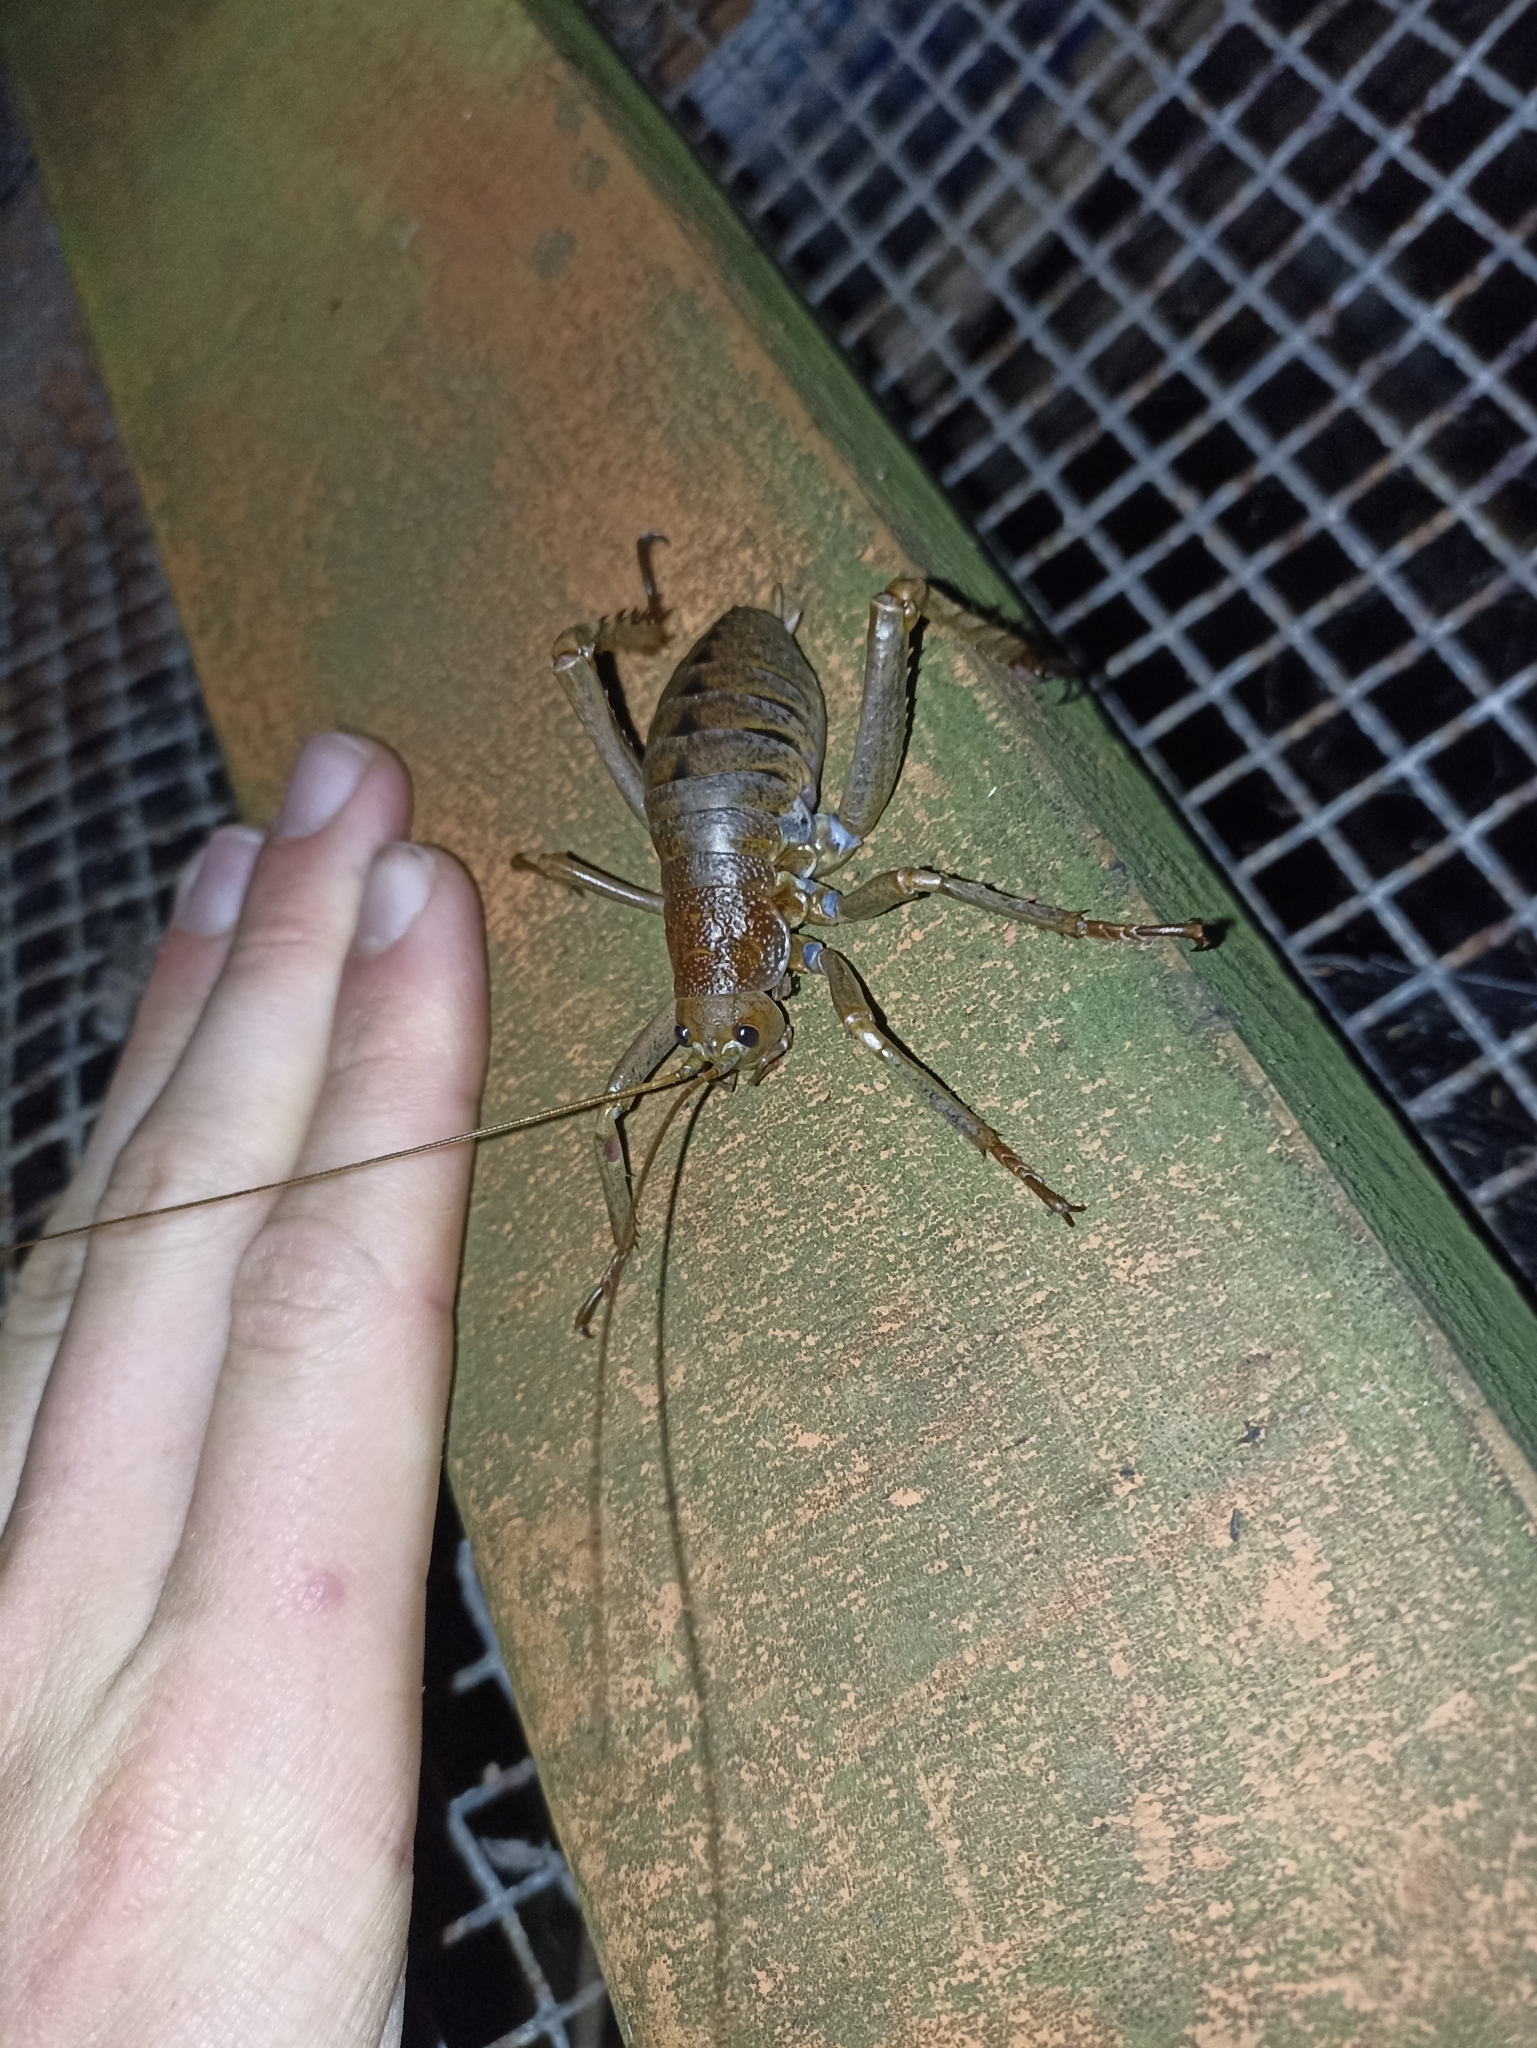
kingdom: Animalia
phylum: Arthropoda
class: Insecta
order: Orthoptera
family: Anostostomatidae
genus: Deinacrida
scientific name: Deinacrida heteracantha
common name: Wetapunga
